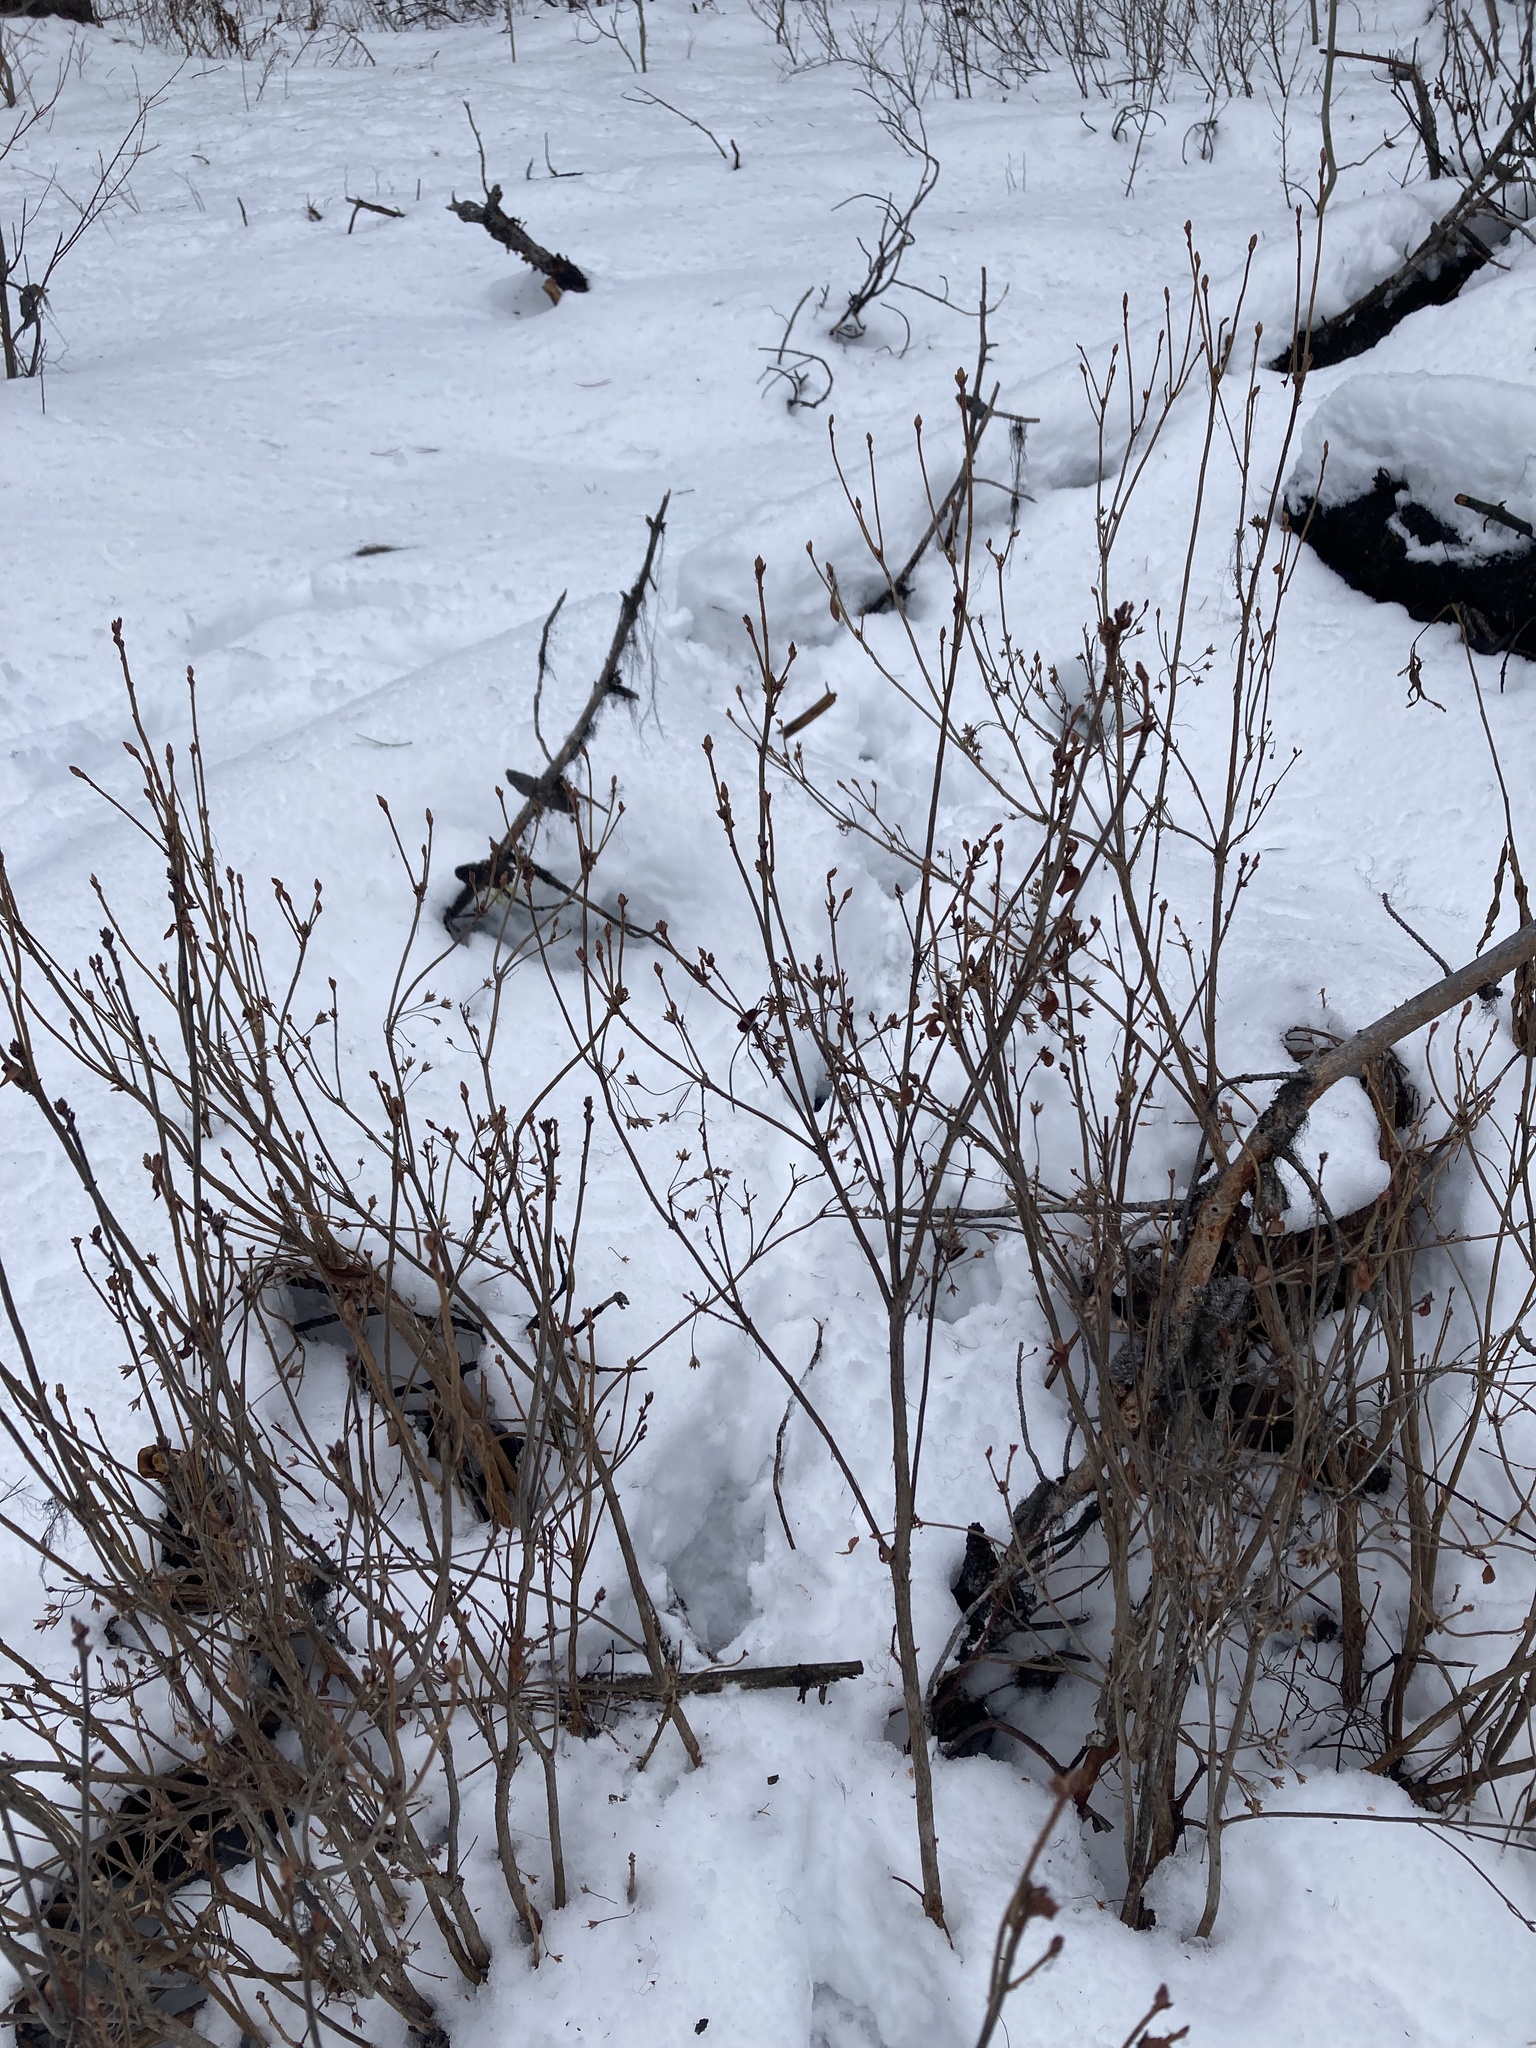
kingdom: Plantae
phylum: Tracheophyta
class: Magnoliopsida
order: Ericales
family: Ericaceae
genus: Rhododendron
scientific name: Rhododendron menziesii
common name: Pacific menziesia
